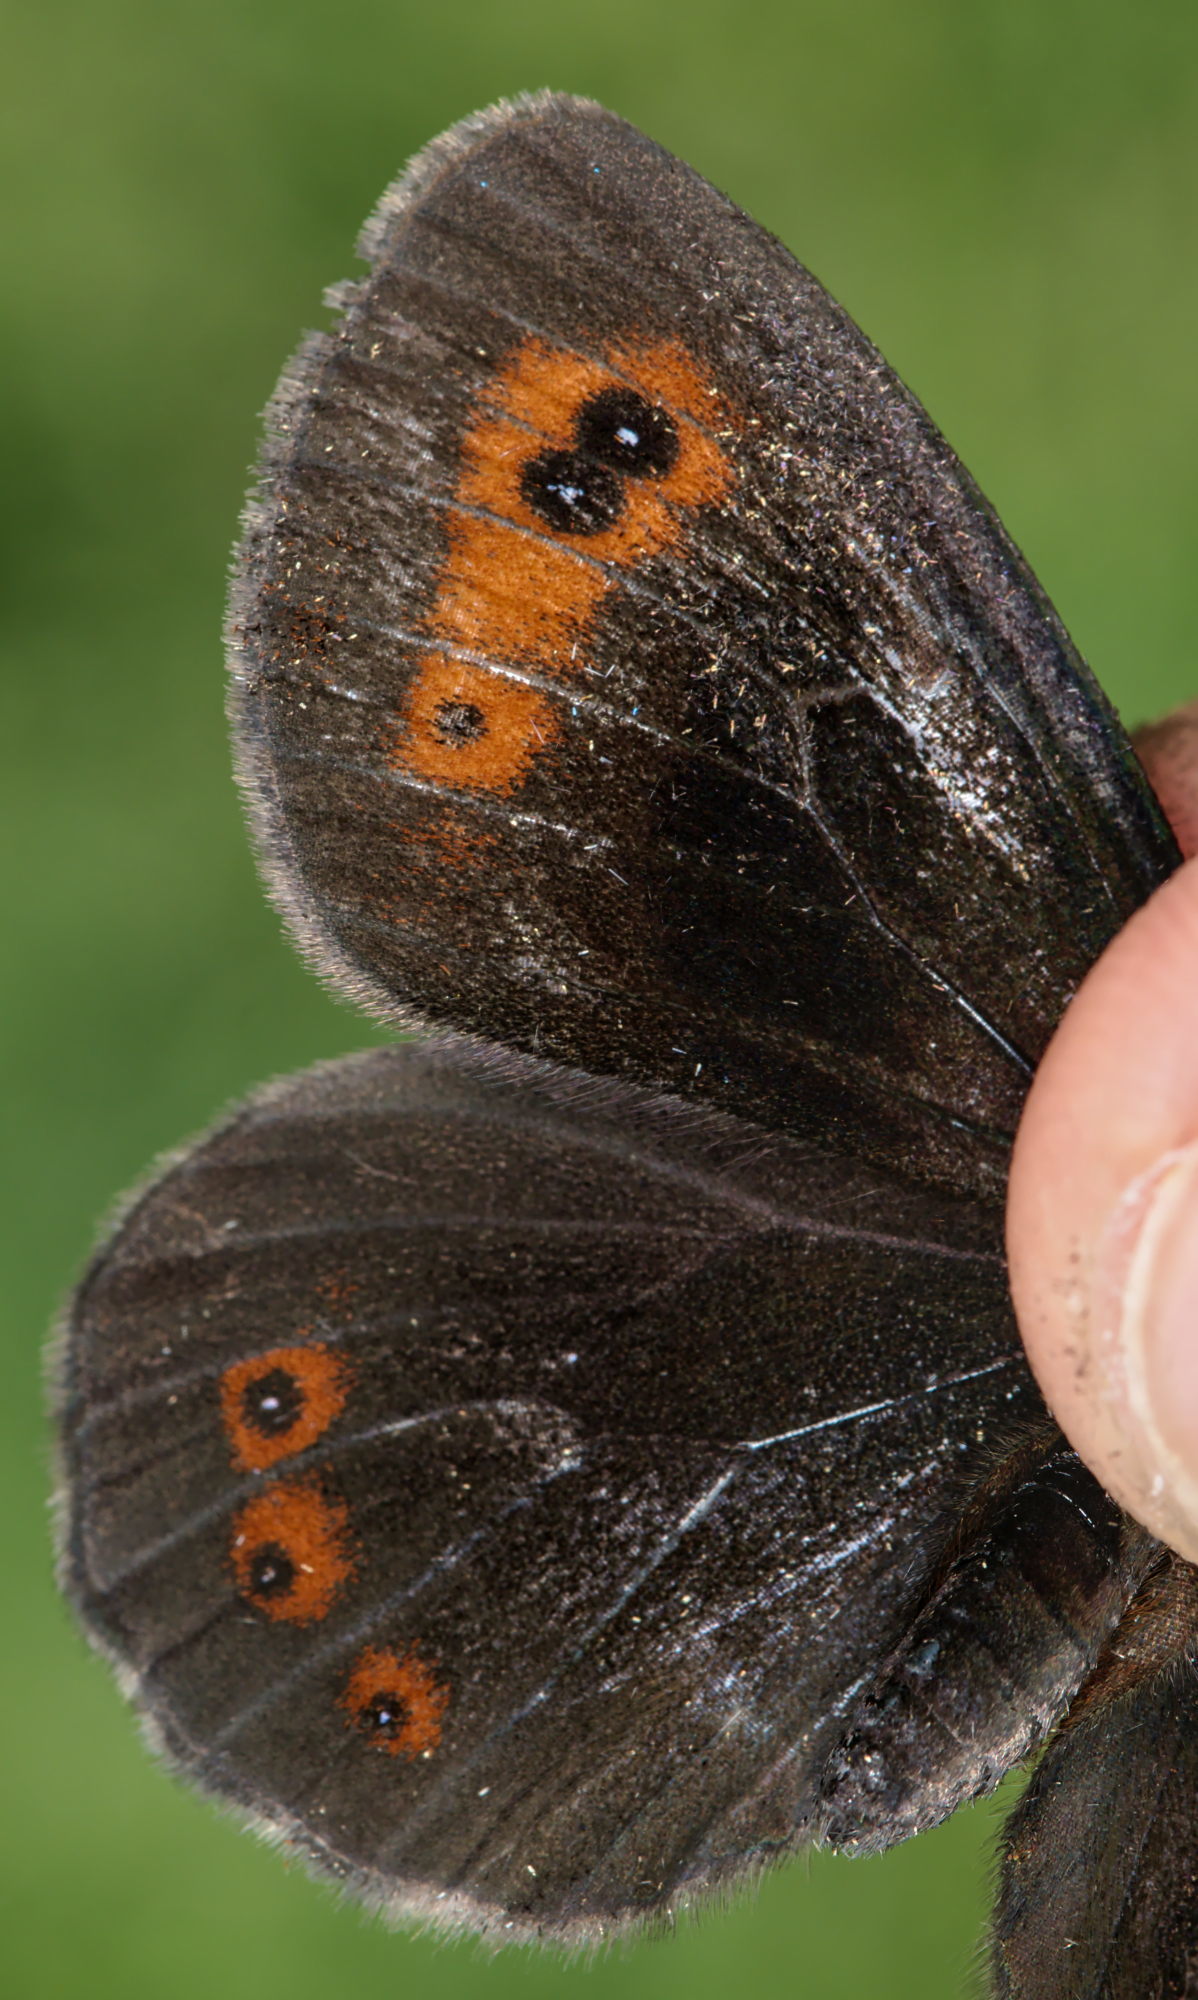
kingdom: Animalia
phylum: Arthropoda
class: Insecta
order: Lepidoptera
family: Nymphalidae
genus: Erebia
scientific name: Erebia aethiops
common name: Scotch argus
